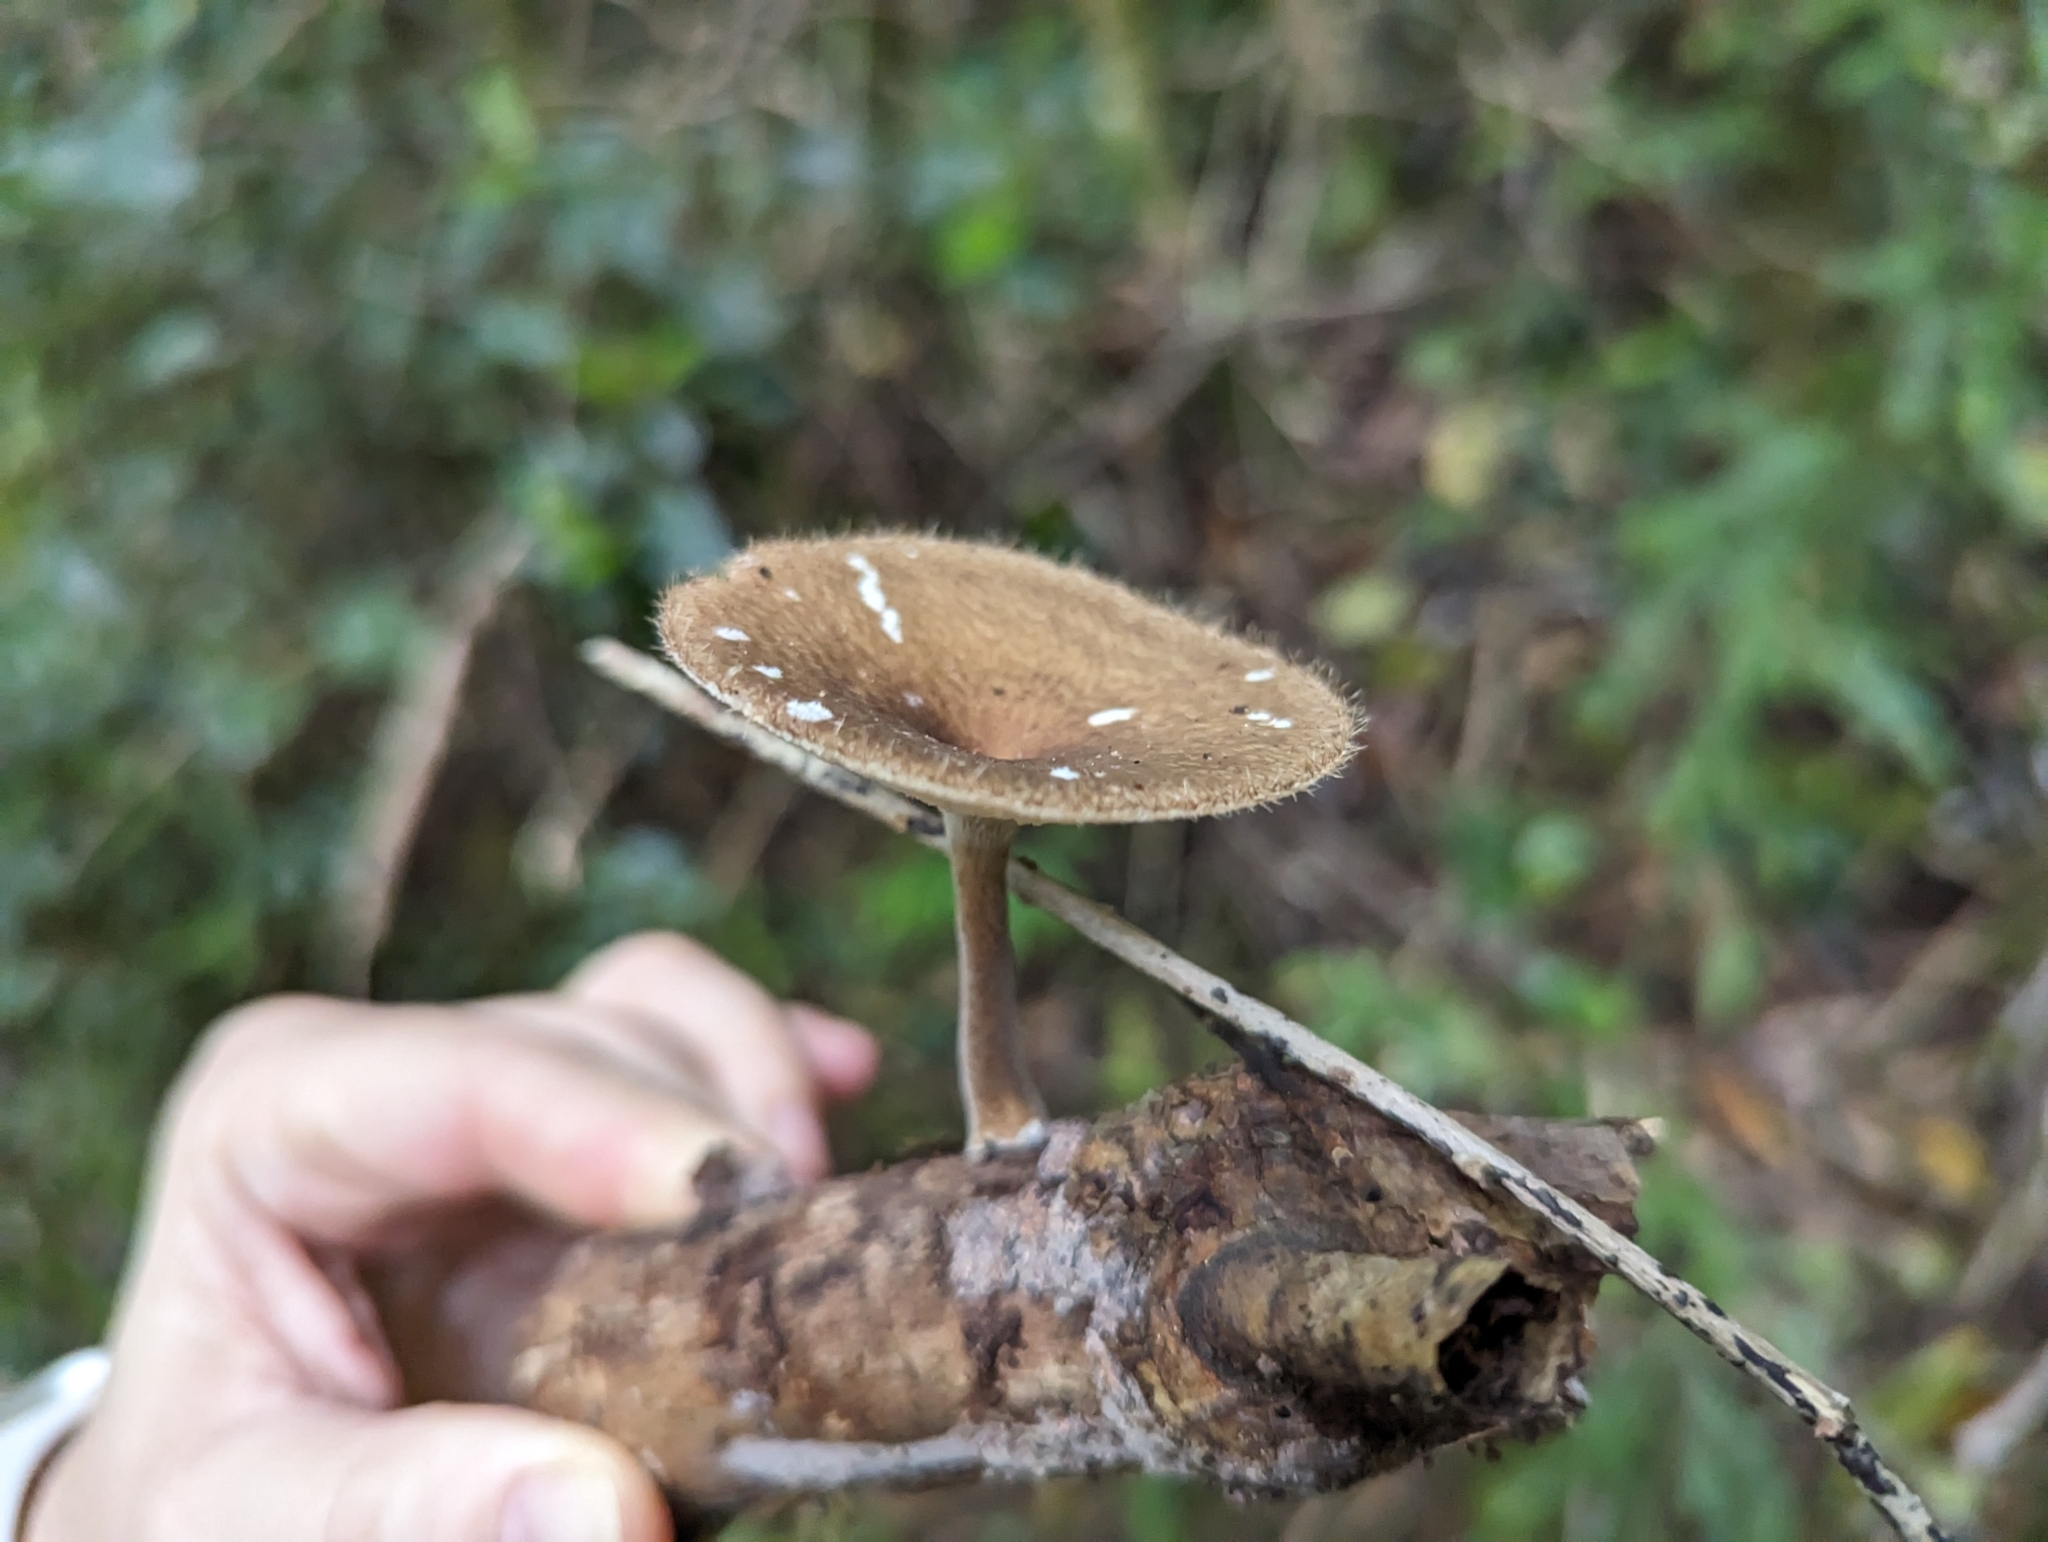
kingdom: Fungi
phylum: Basidiomycota
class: Agaricomycetes
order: Polyporales
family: Polyporaceae
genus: Lentinus
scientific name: Lentinus arcularius
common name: Spring polypore
